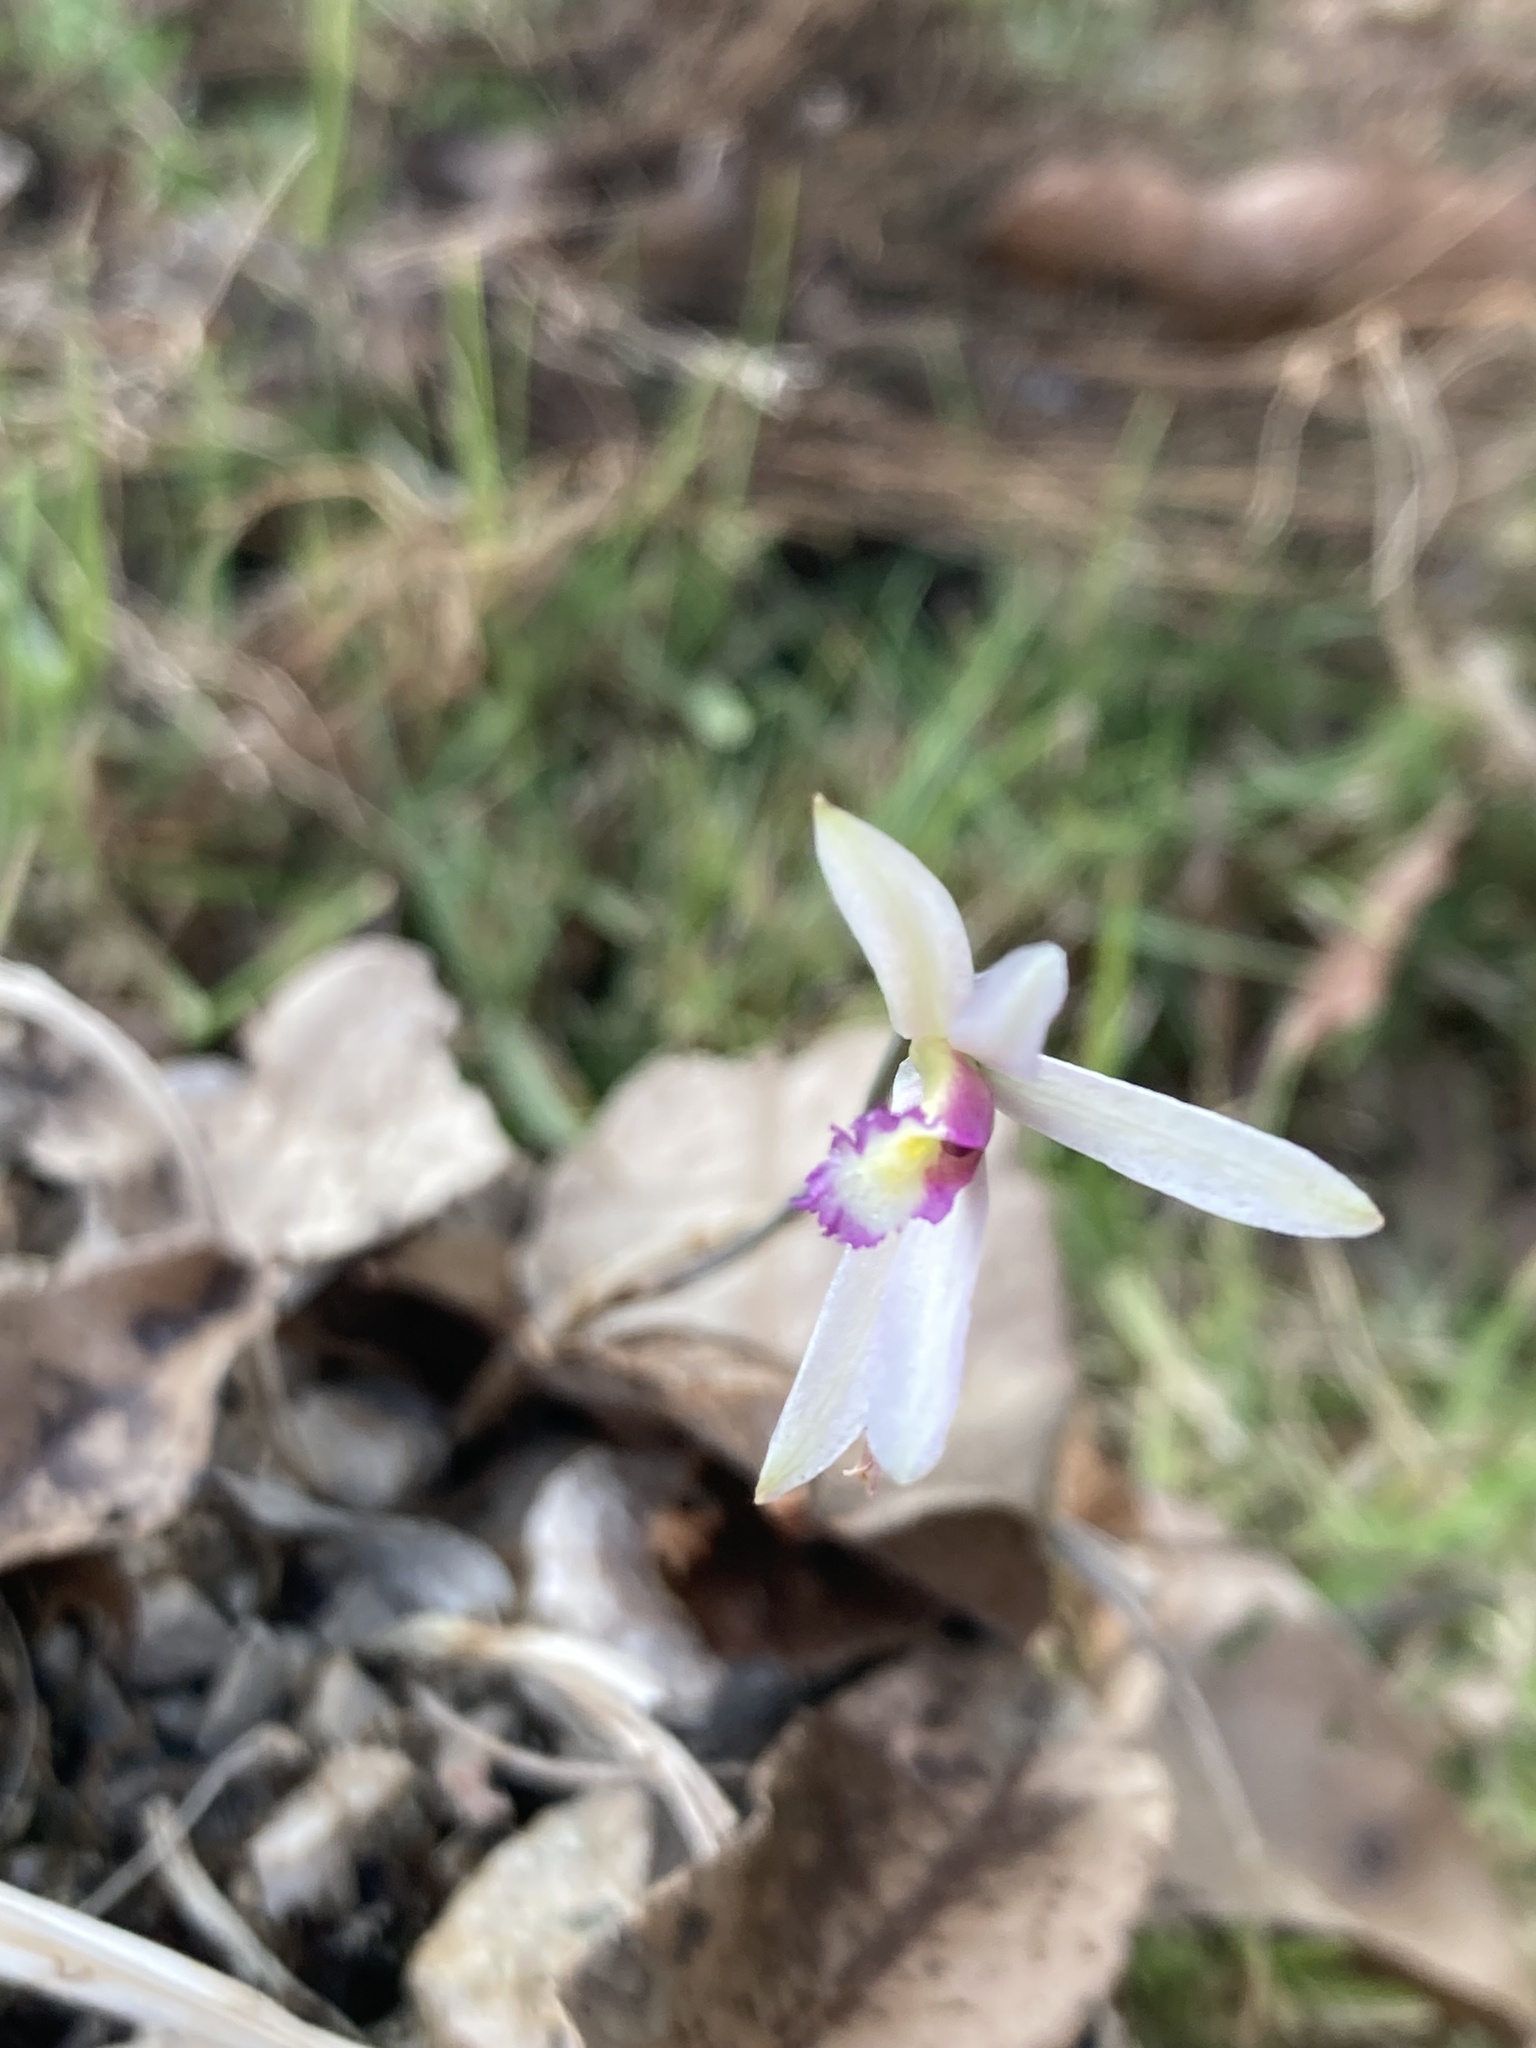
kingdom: Plantae
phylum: Tracheophyta
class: Liliopsida
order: Asparagales
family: Orchidaceae
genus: Bletia
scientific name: Bletia parkinsonii
